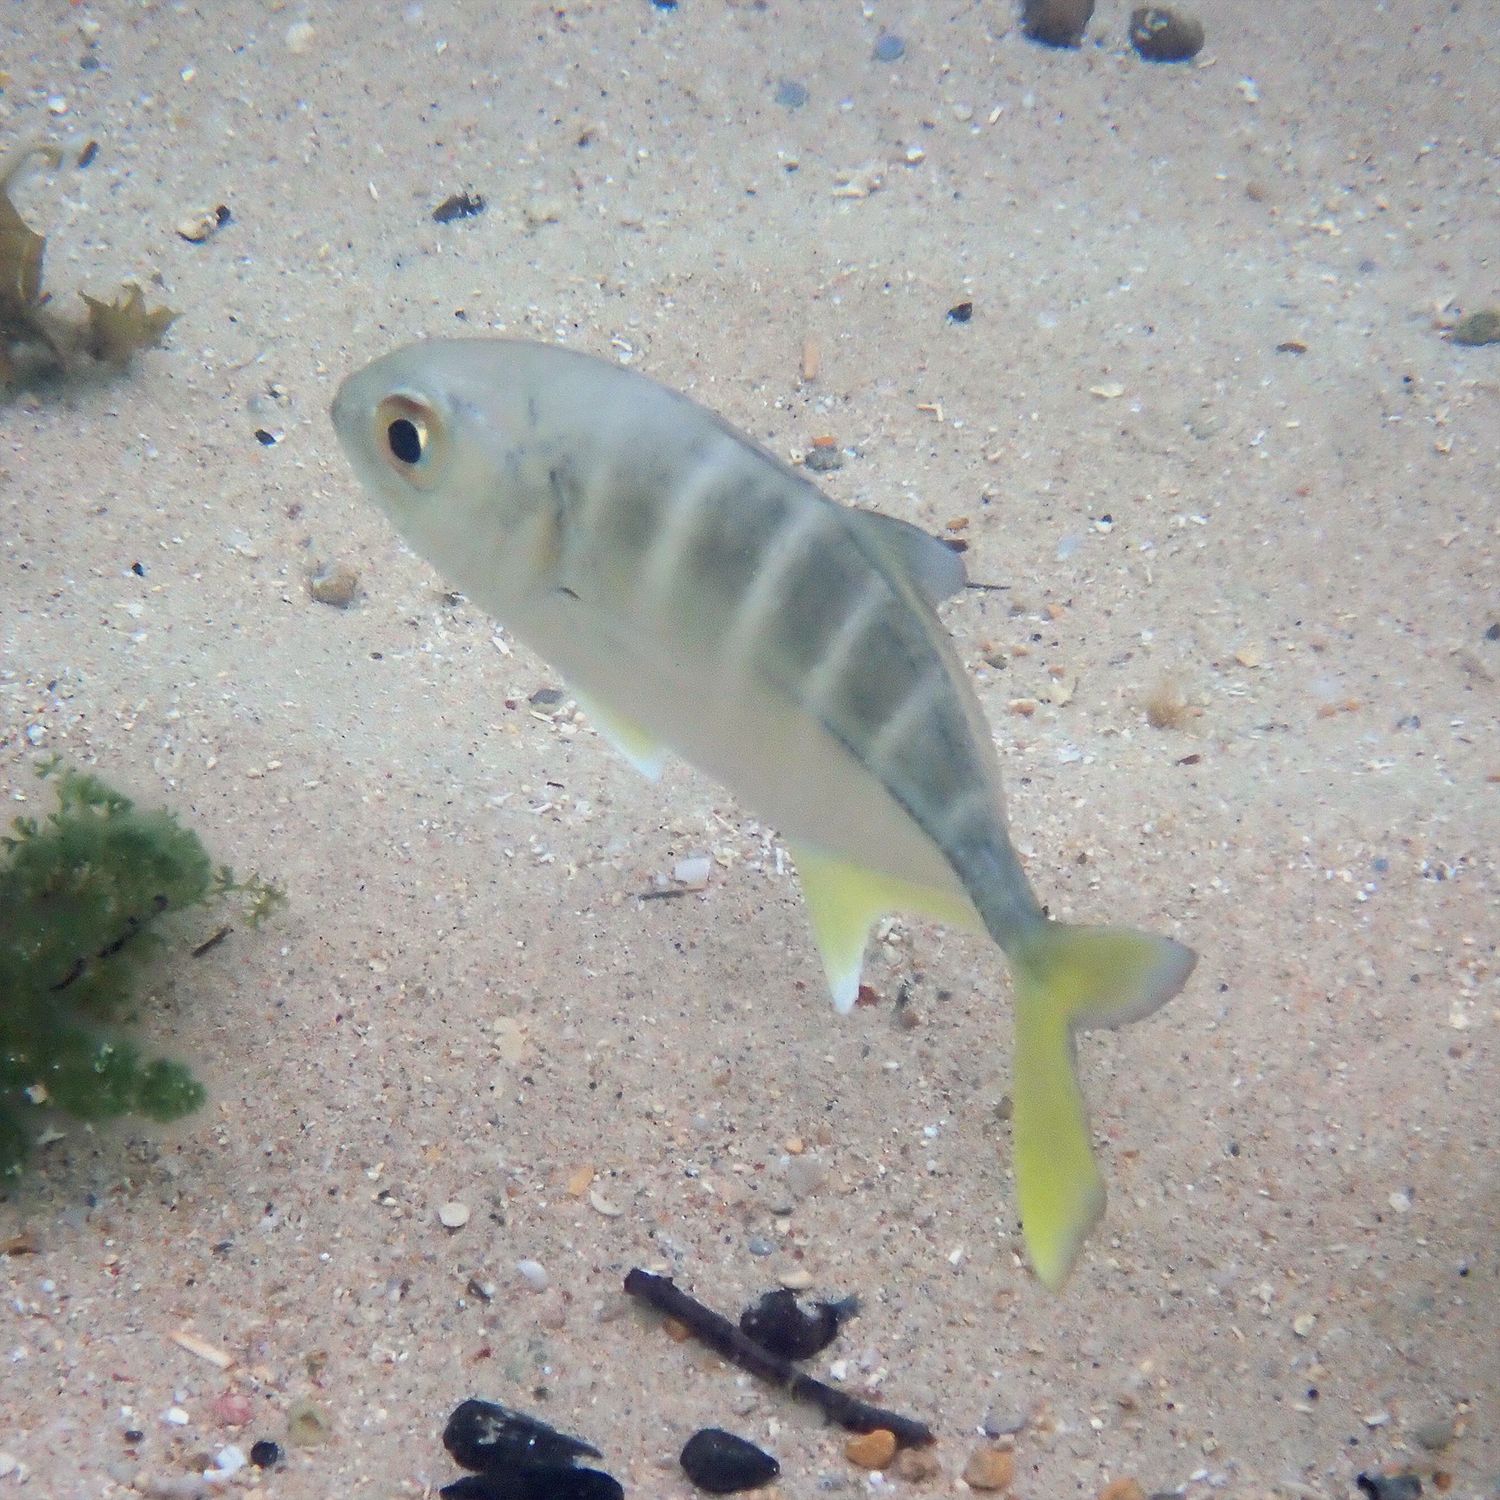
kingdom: Animalia
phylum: Chordata
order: Perciformes
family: Carangidae
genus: Caranx
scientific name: Caranx sexfasciatus
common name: Bigeye trevally
